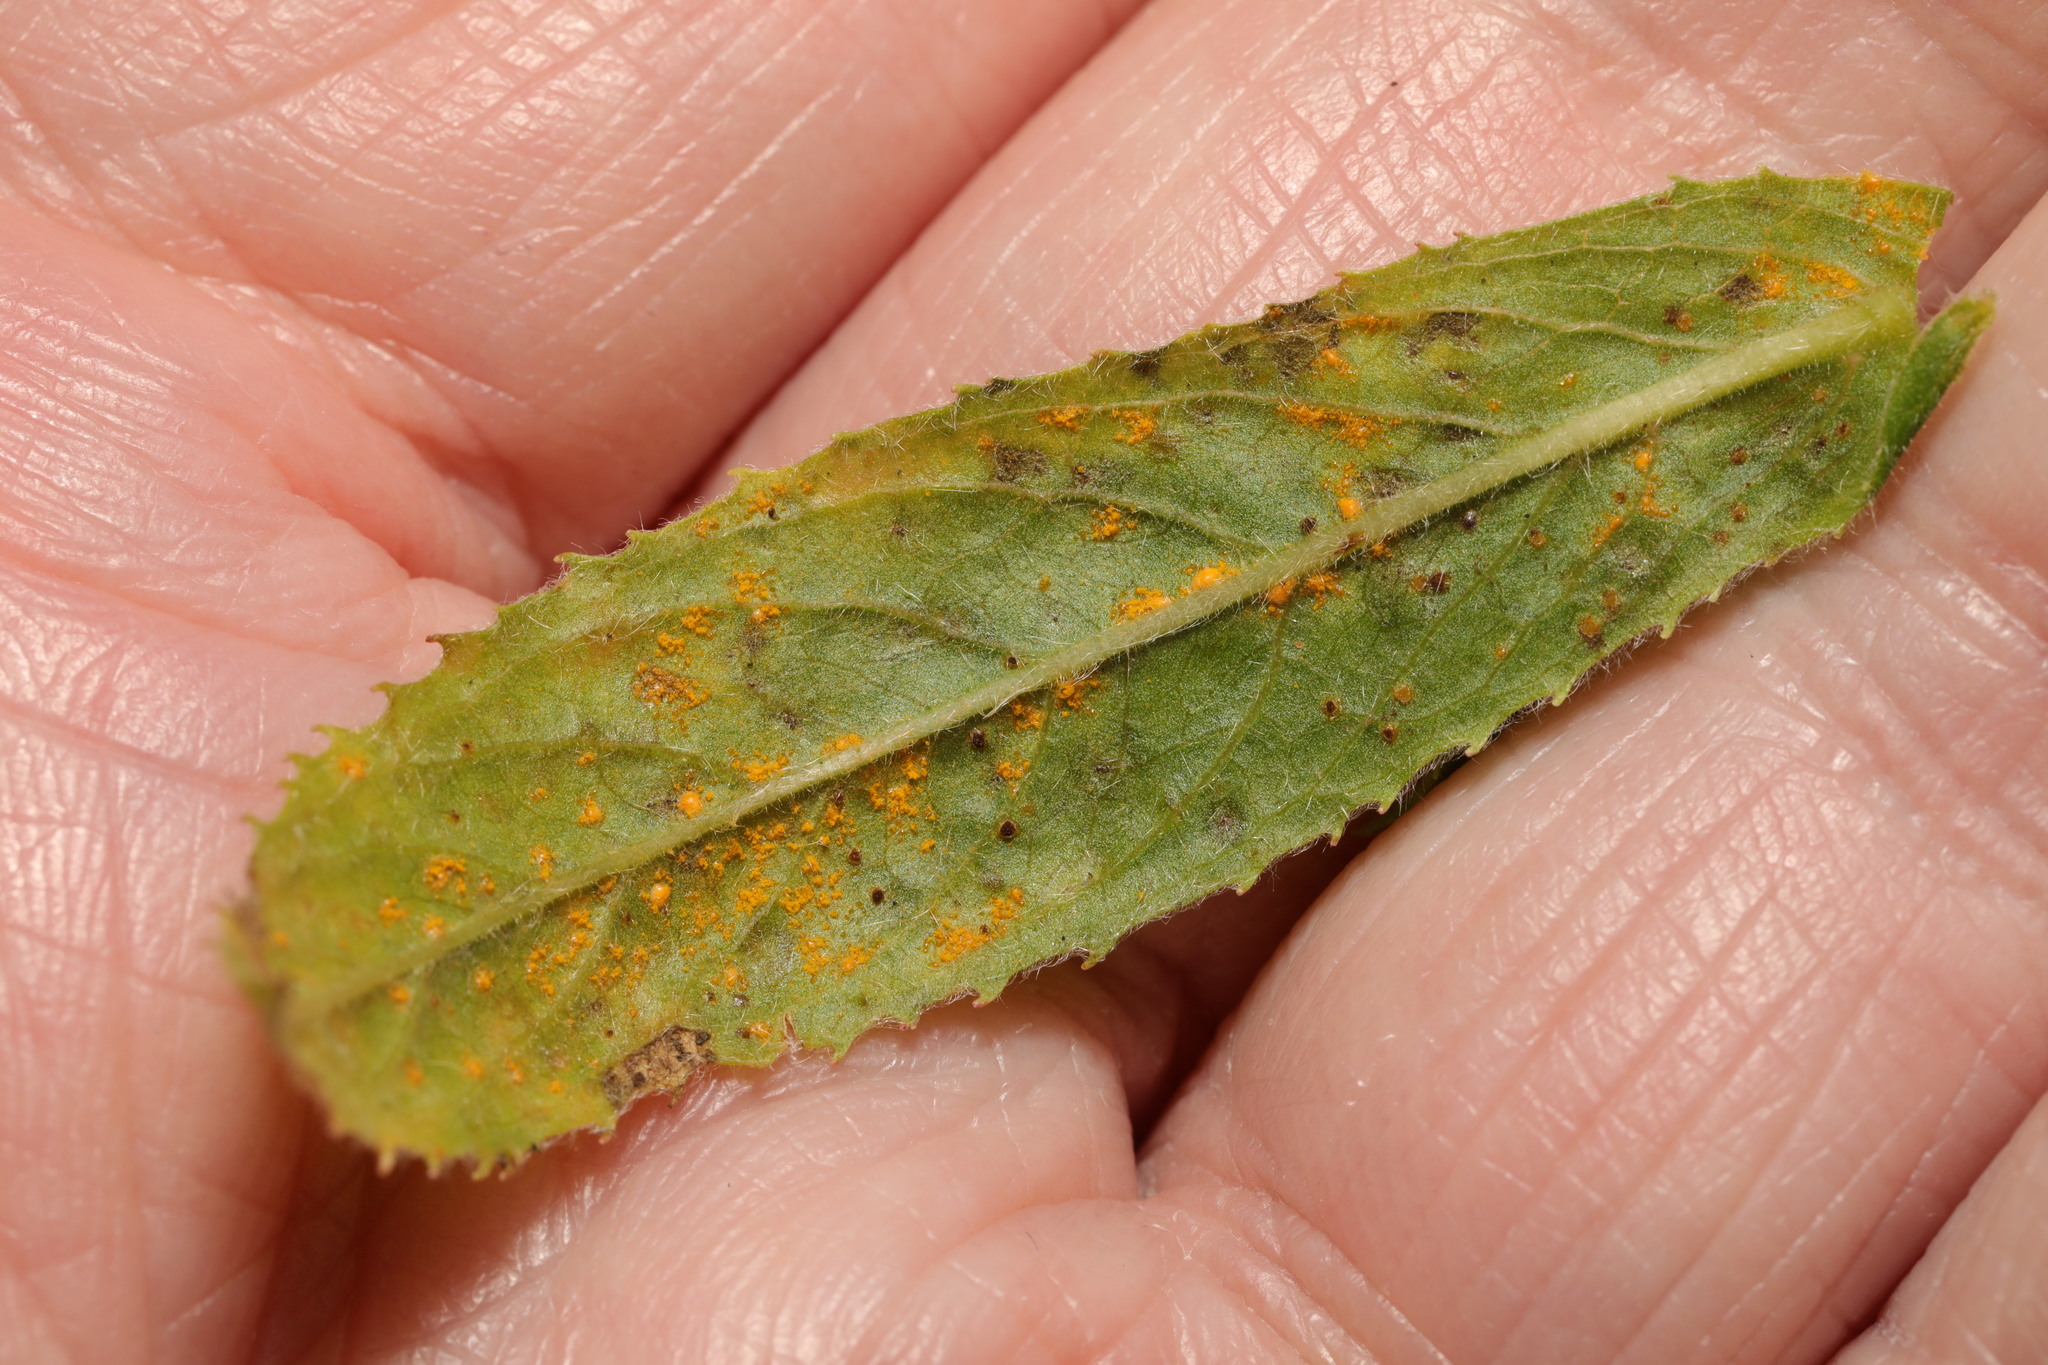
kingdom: Fungi
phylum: Basidiomycota
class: Pucciniomycetes
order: Pucciniales
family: Pucciniaceae
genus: Puccinia
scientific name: Puccinia pulverulenta
